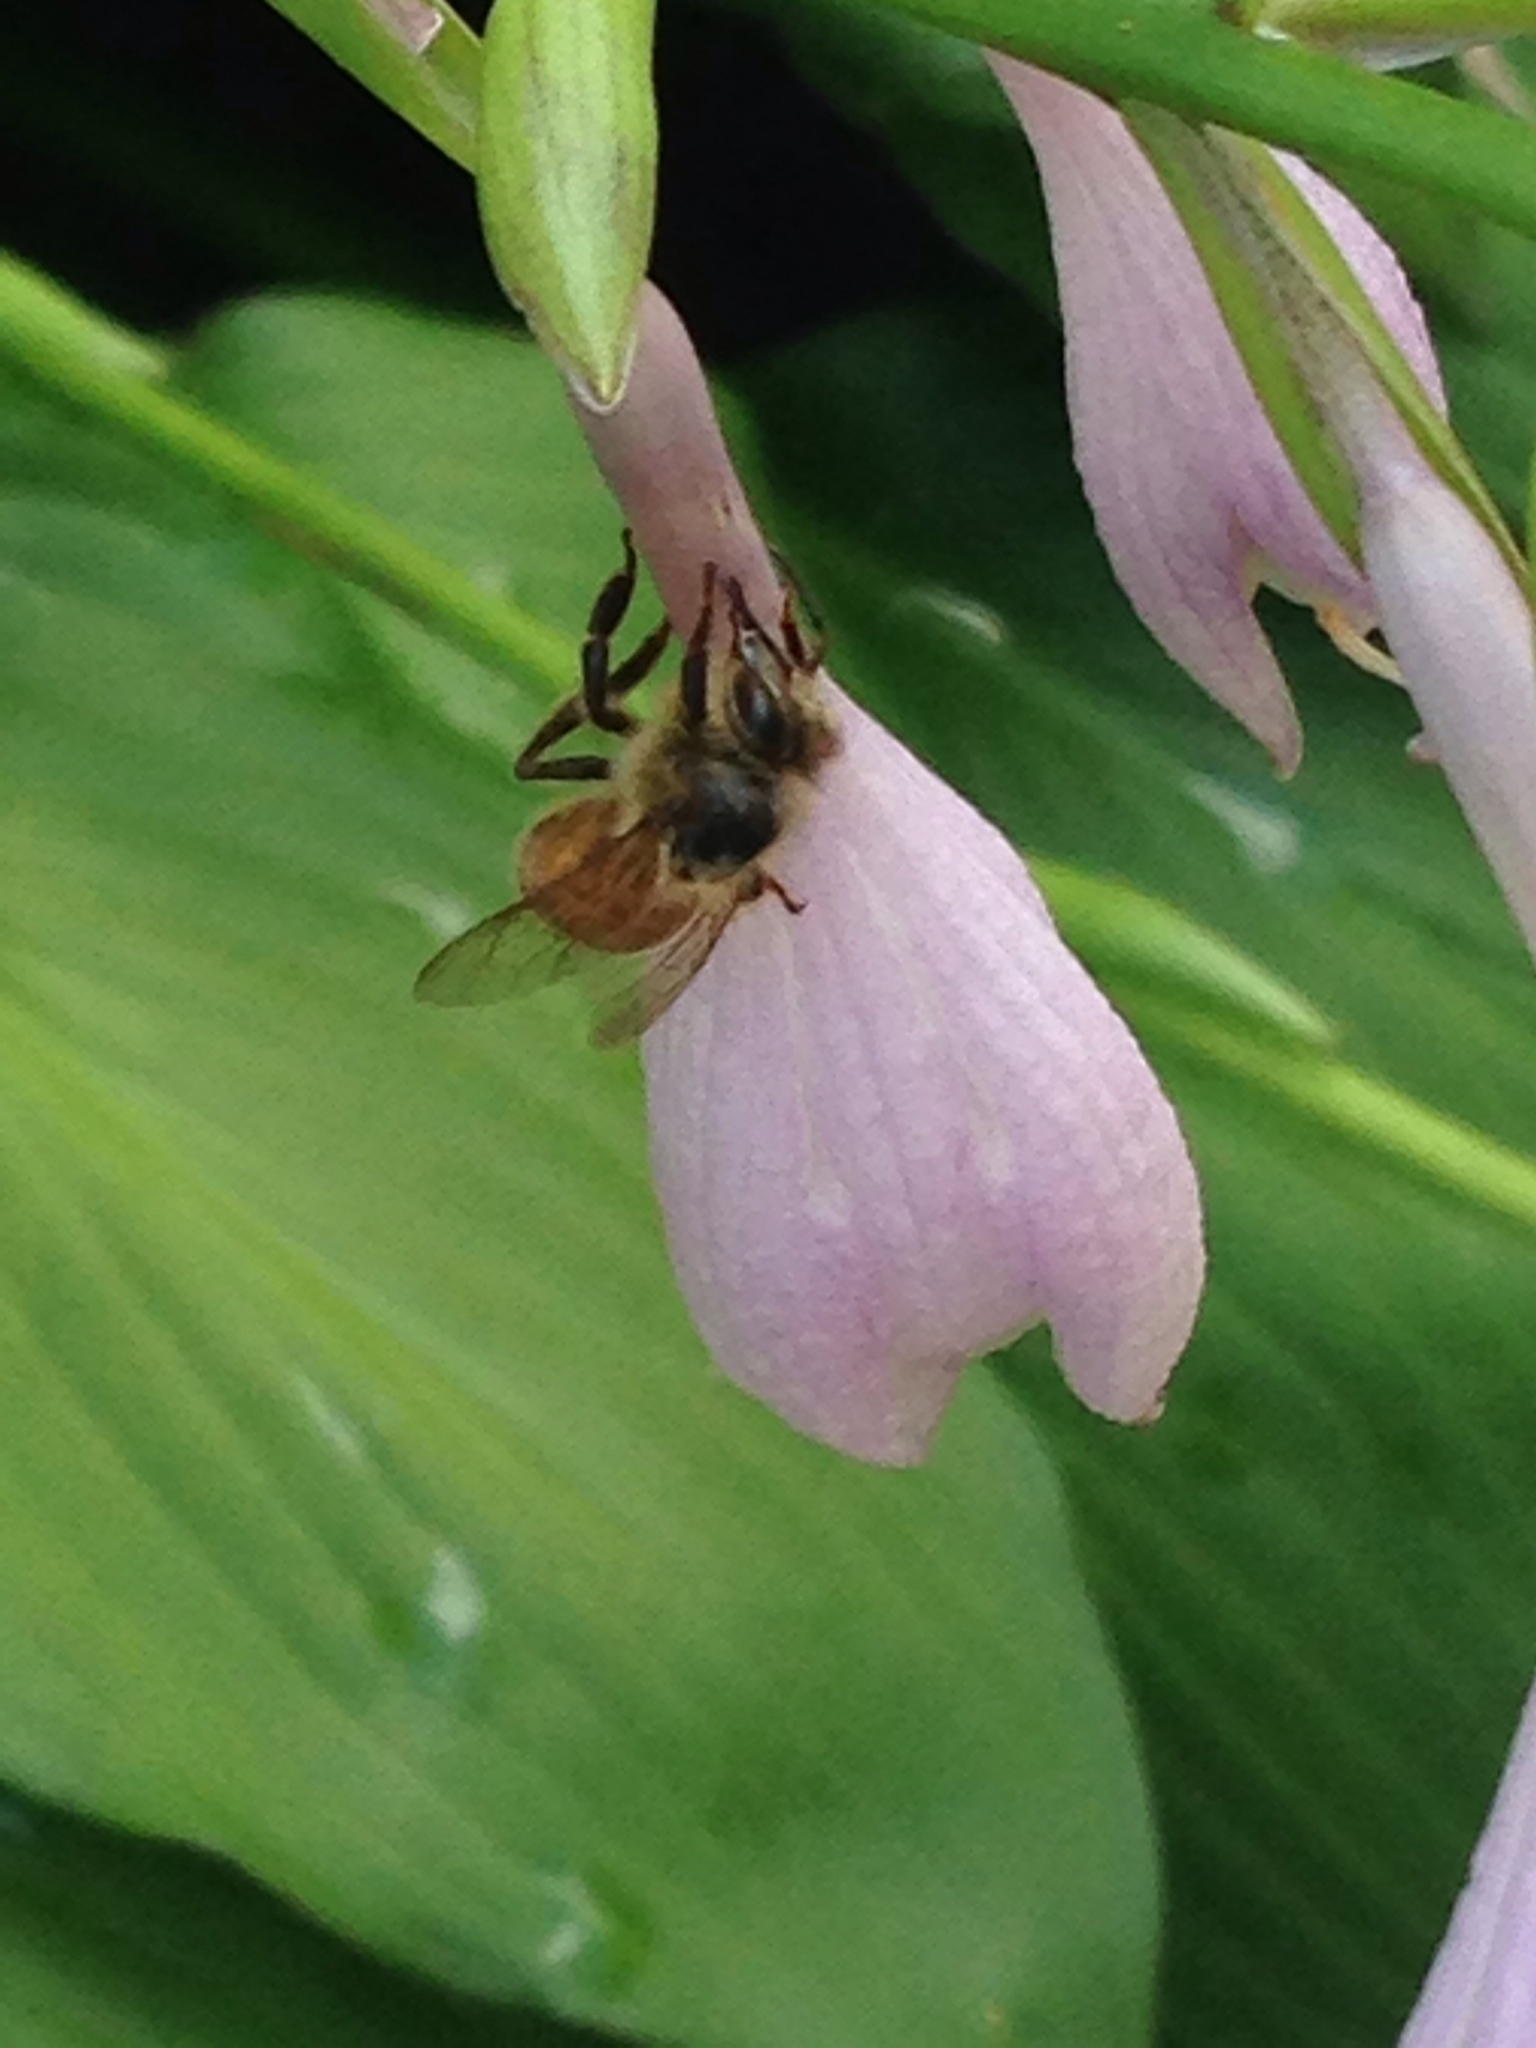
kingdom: Animalia
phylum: Arthropoda
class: Insecta
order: Hymenoptera
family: Apidae
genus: Apis
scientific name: Apis mellifera
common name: Honey bee
